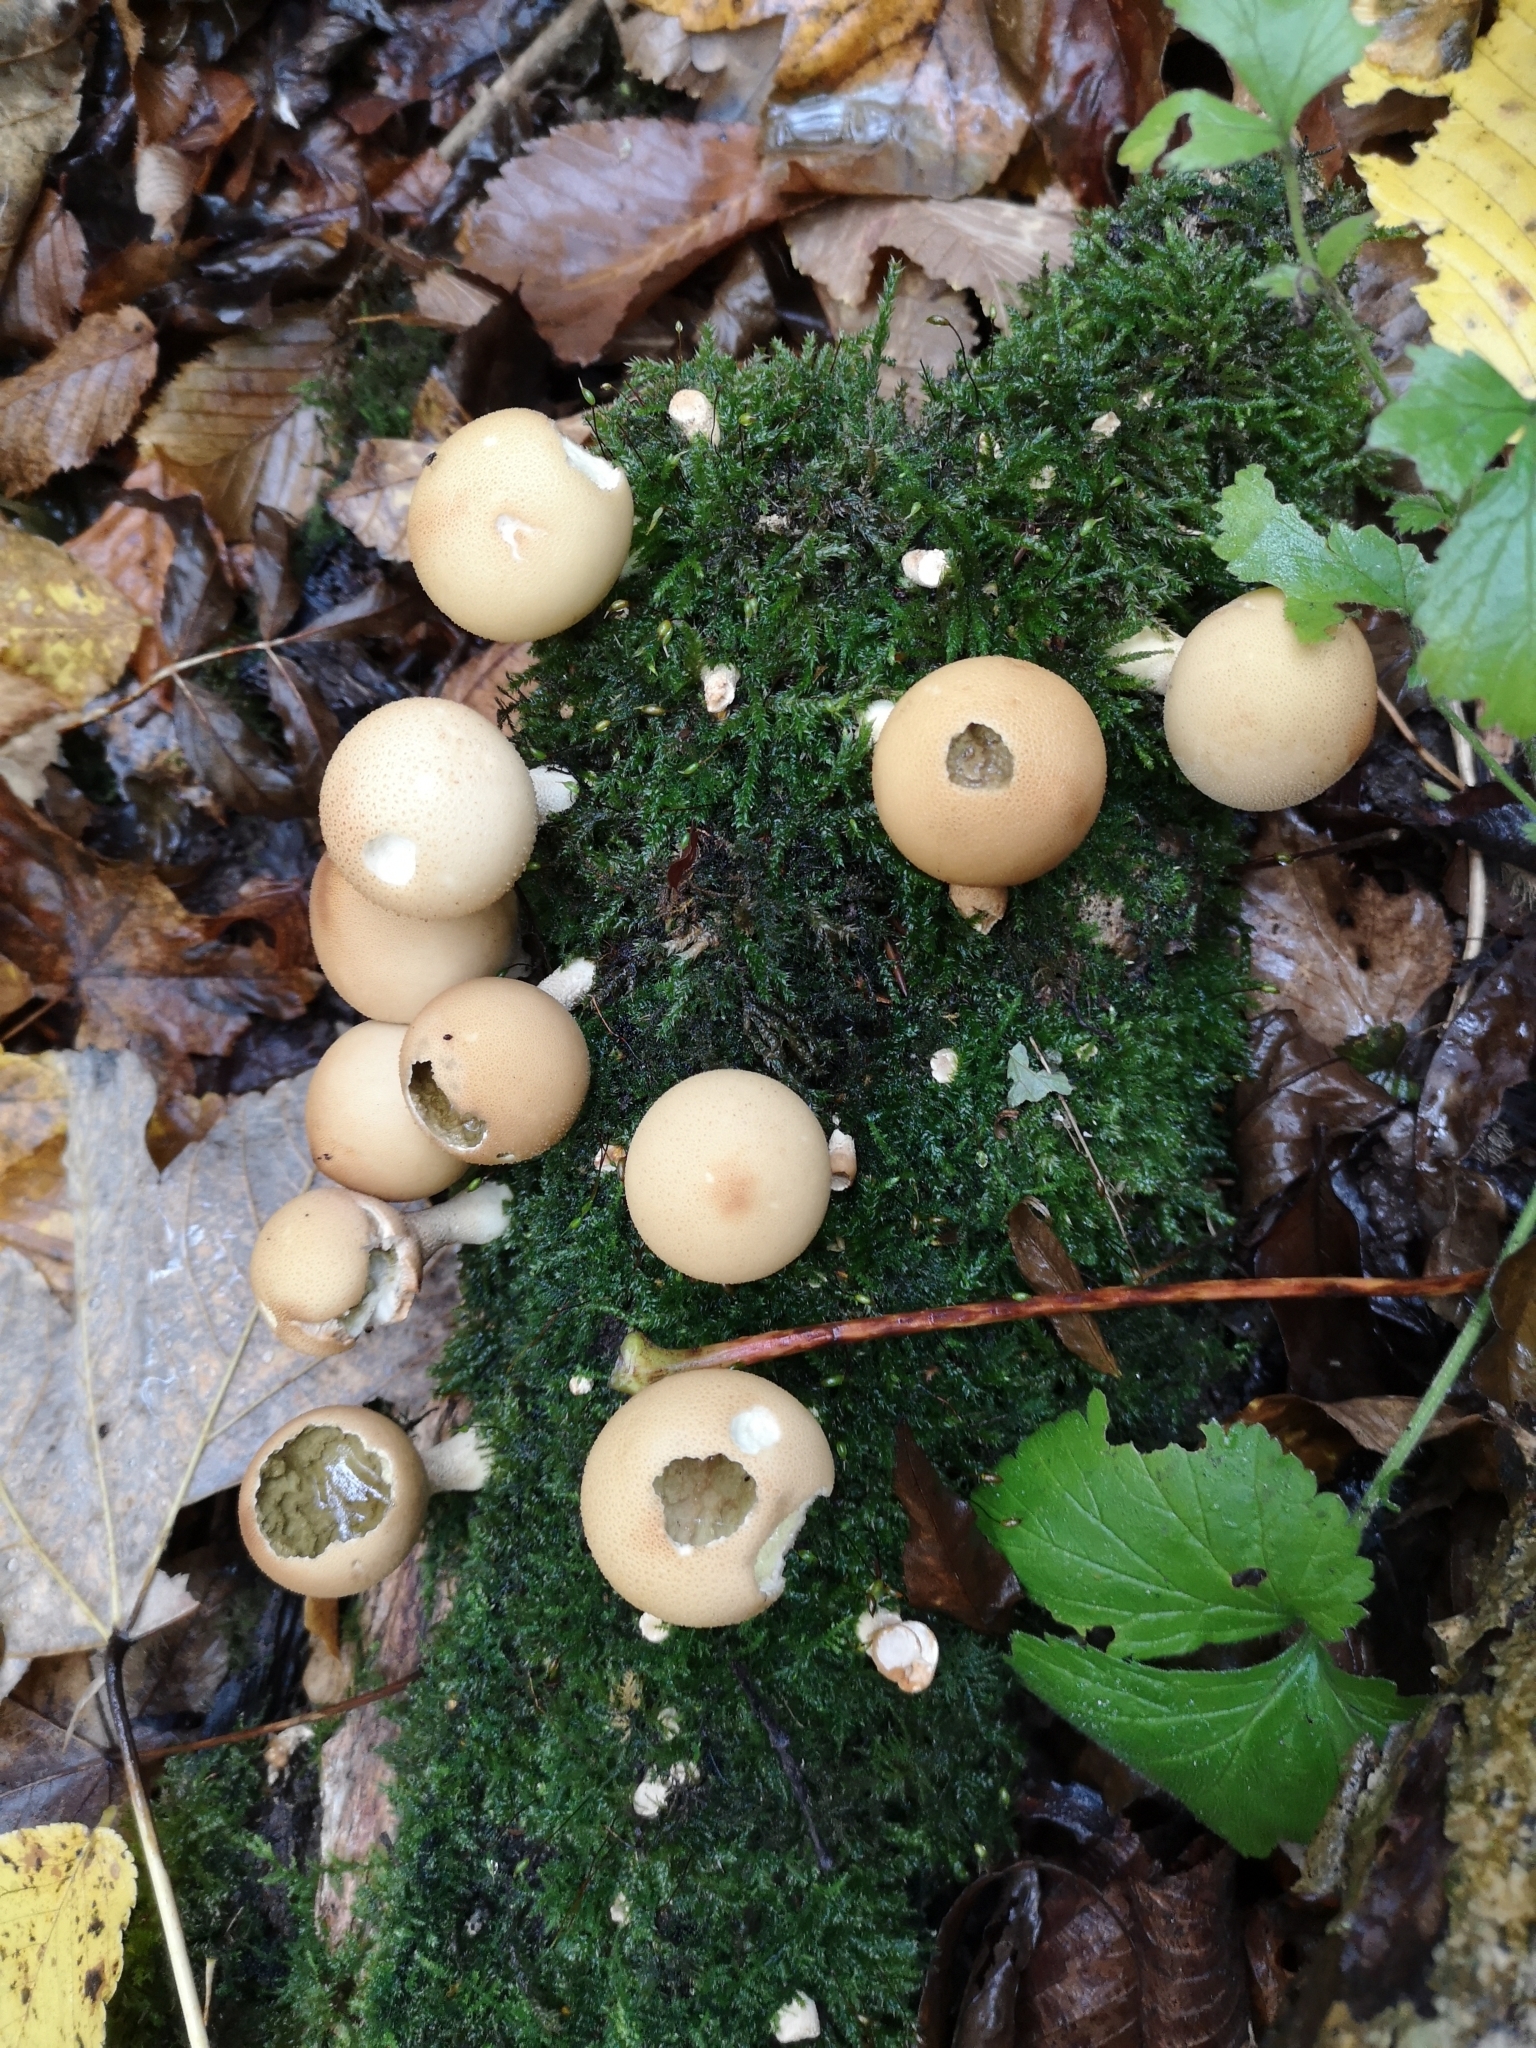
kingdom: Fungi
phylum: Basidiomycota
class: Agaricomycetes
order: Agaricales
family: Lycoperdaceae
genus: Apioperdon
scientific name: Apioperdon pyriforme
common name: Pear-shaped puffball
